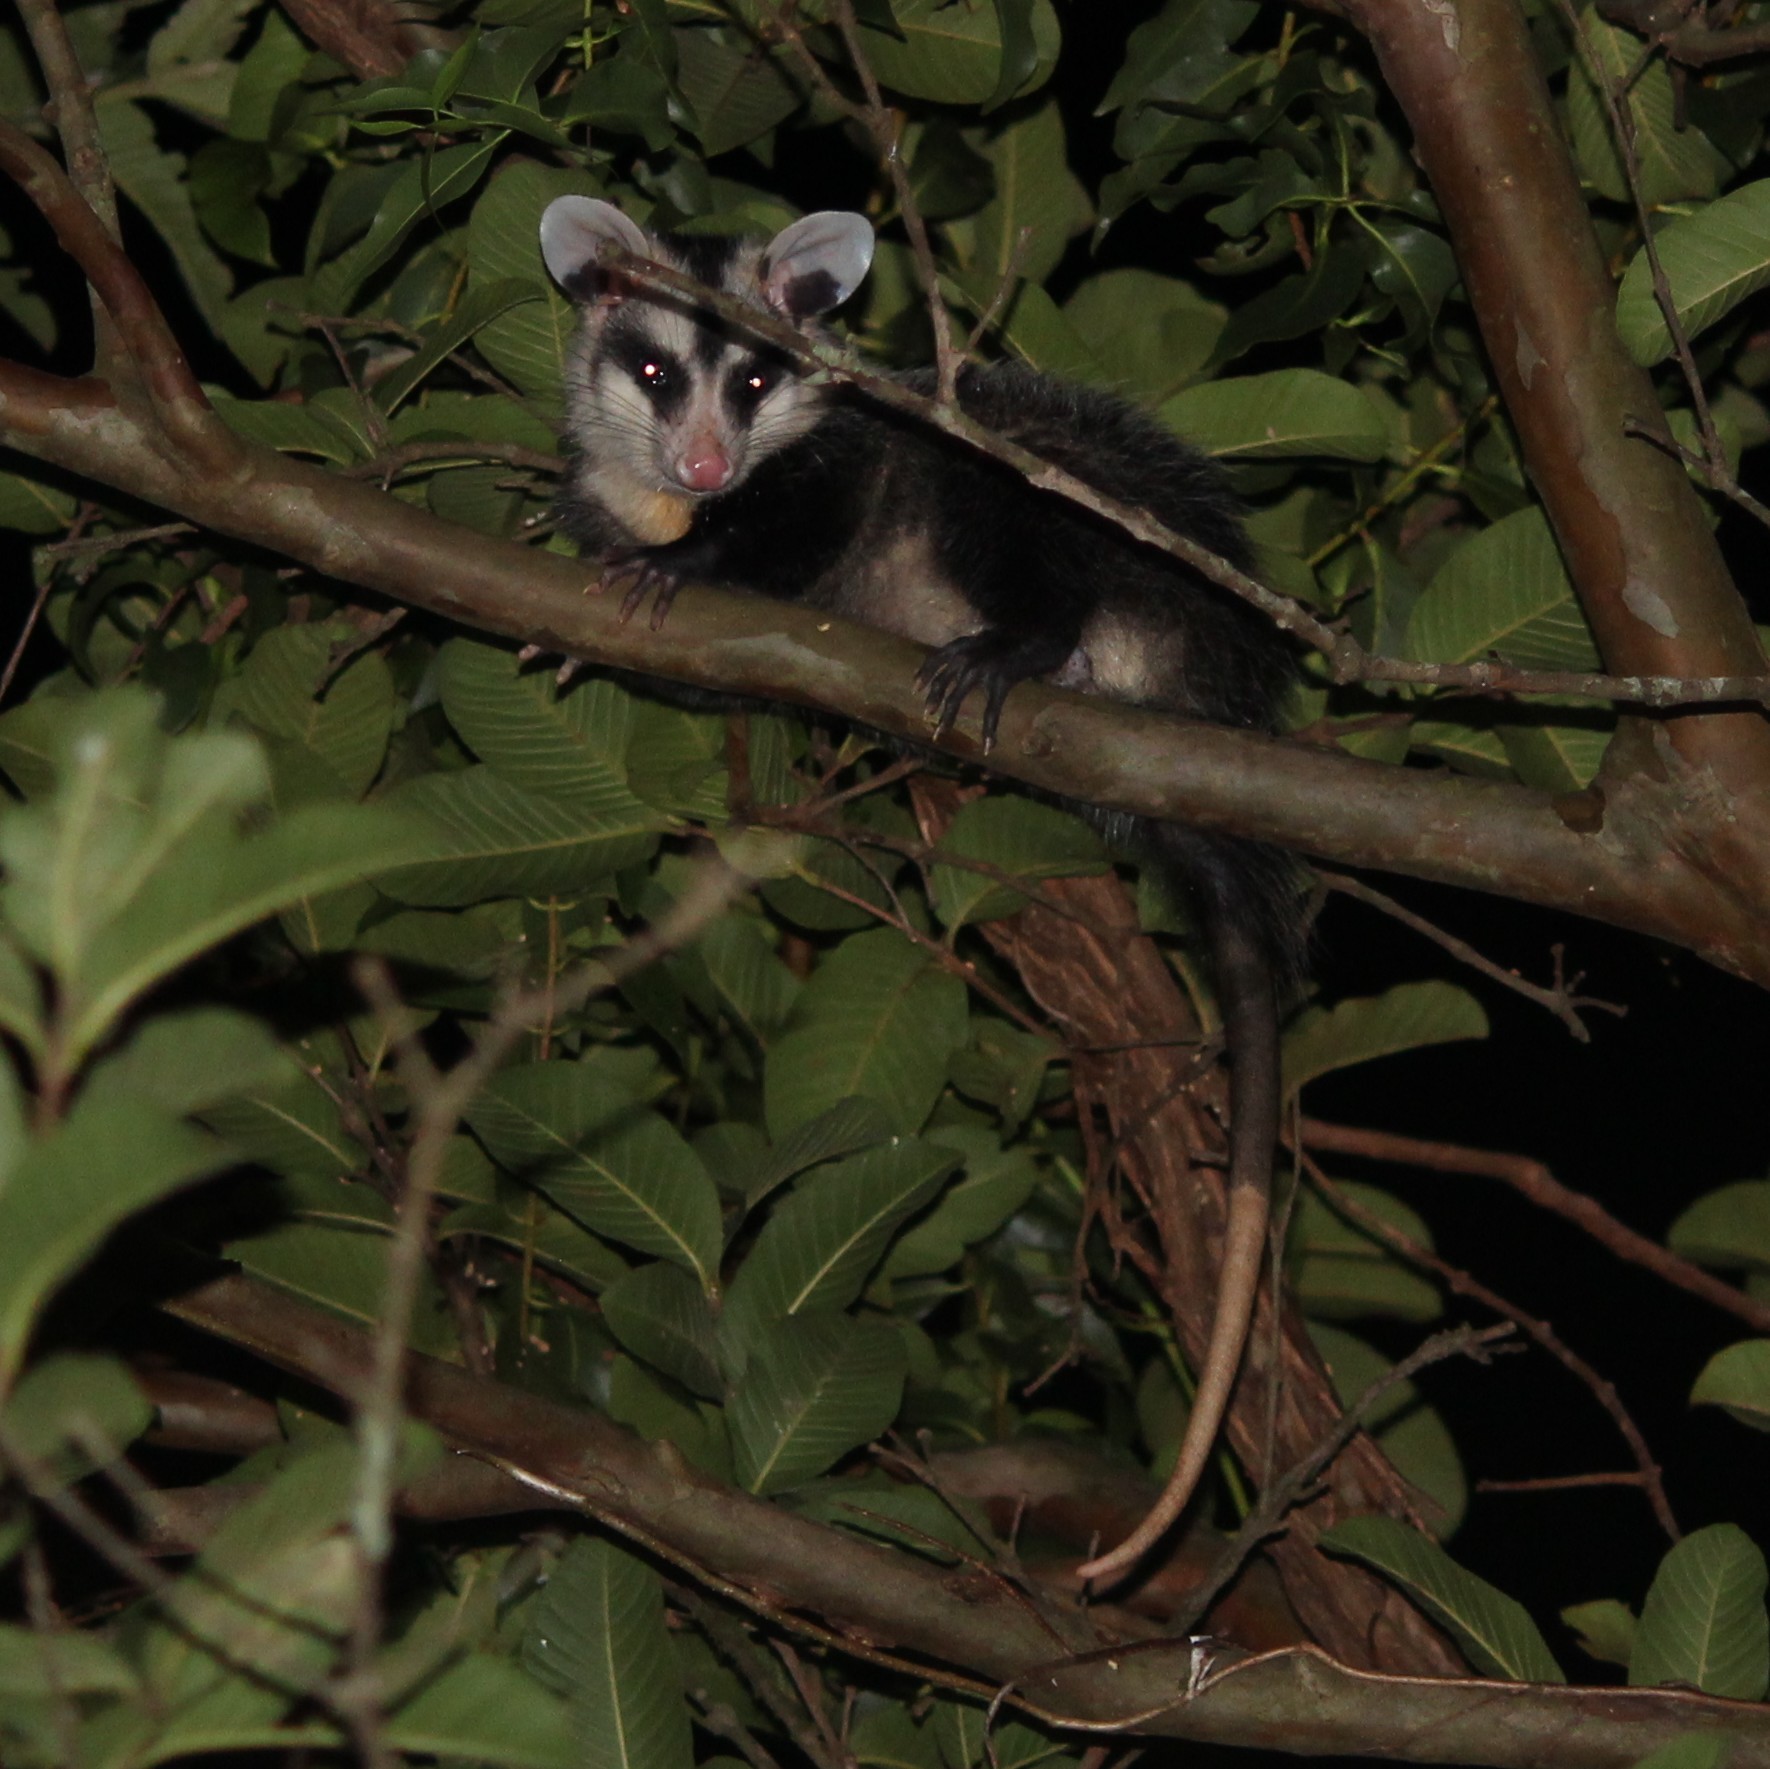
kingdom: Animalia
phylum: Chordata
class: Mammalia
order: Didelphimorphia
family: Didelphidae
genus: Didelphis
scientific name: Didelphis albiventris
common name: White-eared opossum
